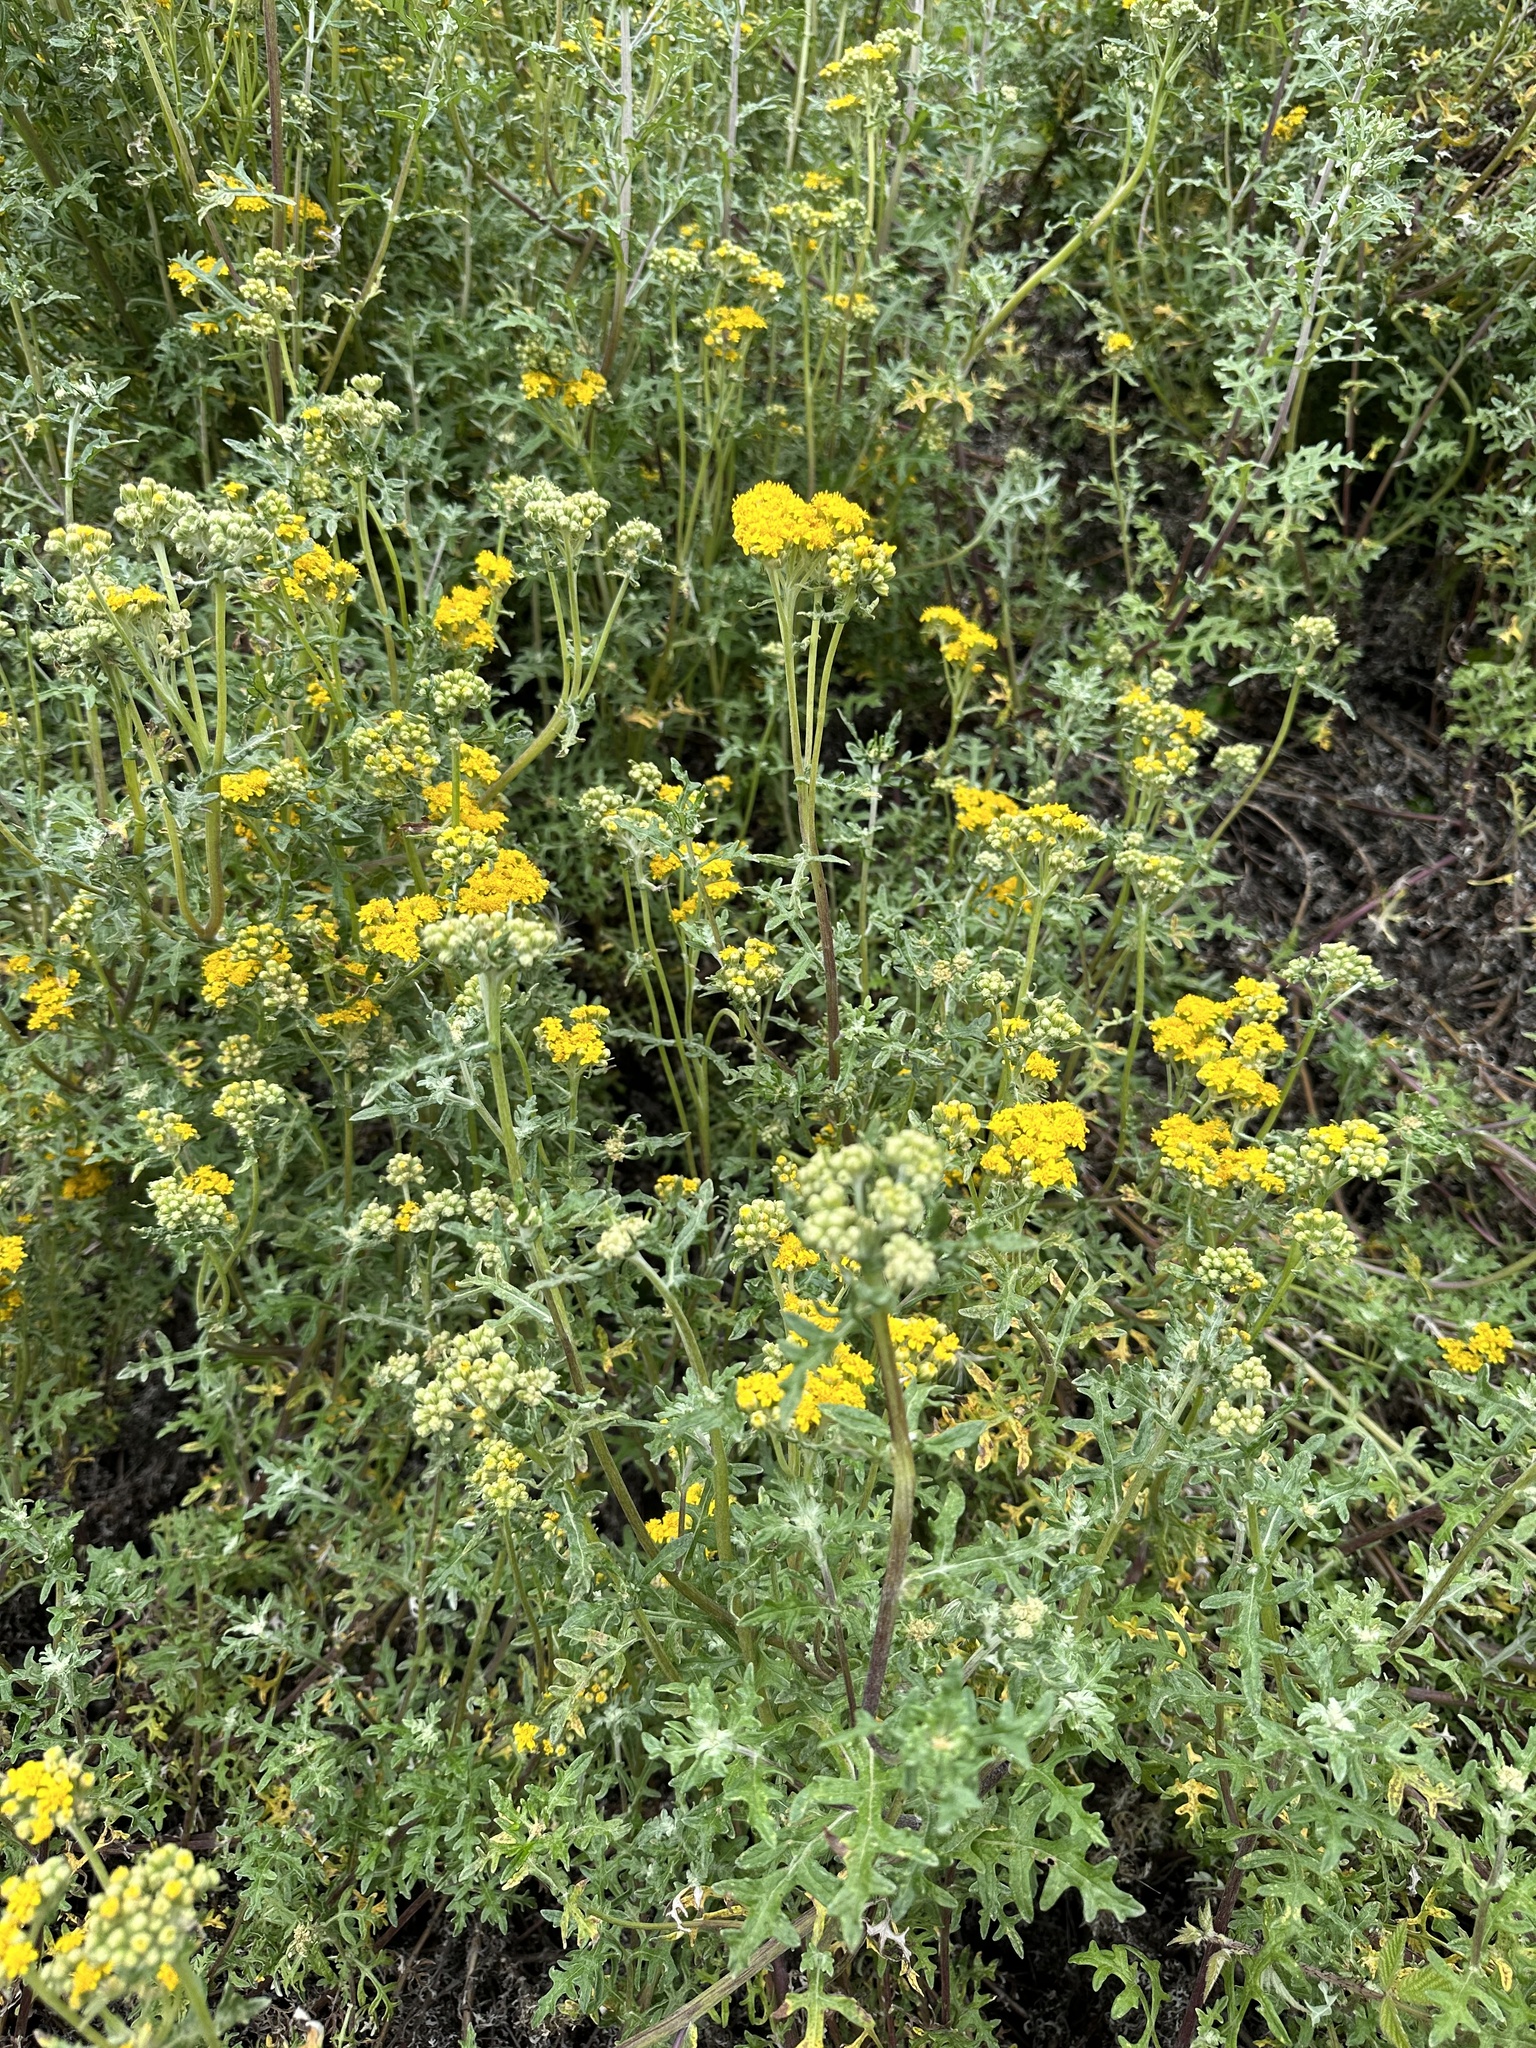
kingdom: Plantae
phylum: Tracheophyta
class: Magnoliopsida
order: Asterales
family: Asteraceae
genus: Eriophyllum
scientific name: Eriophyllum staechadifolium
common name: Lizardtail
